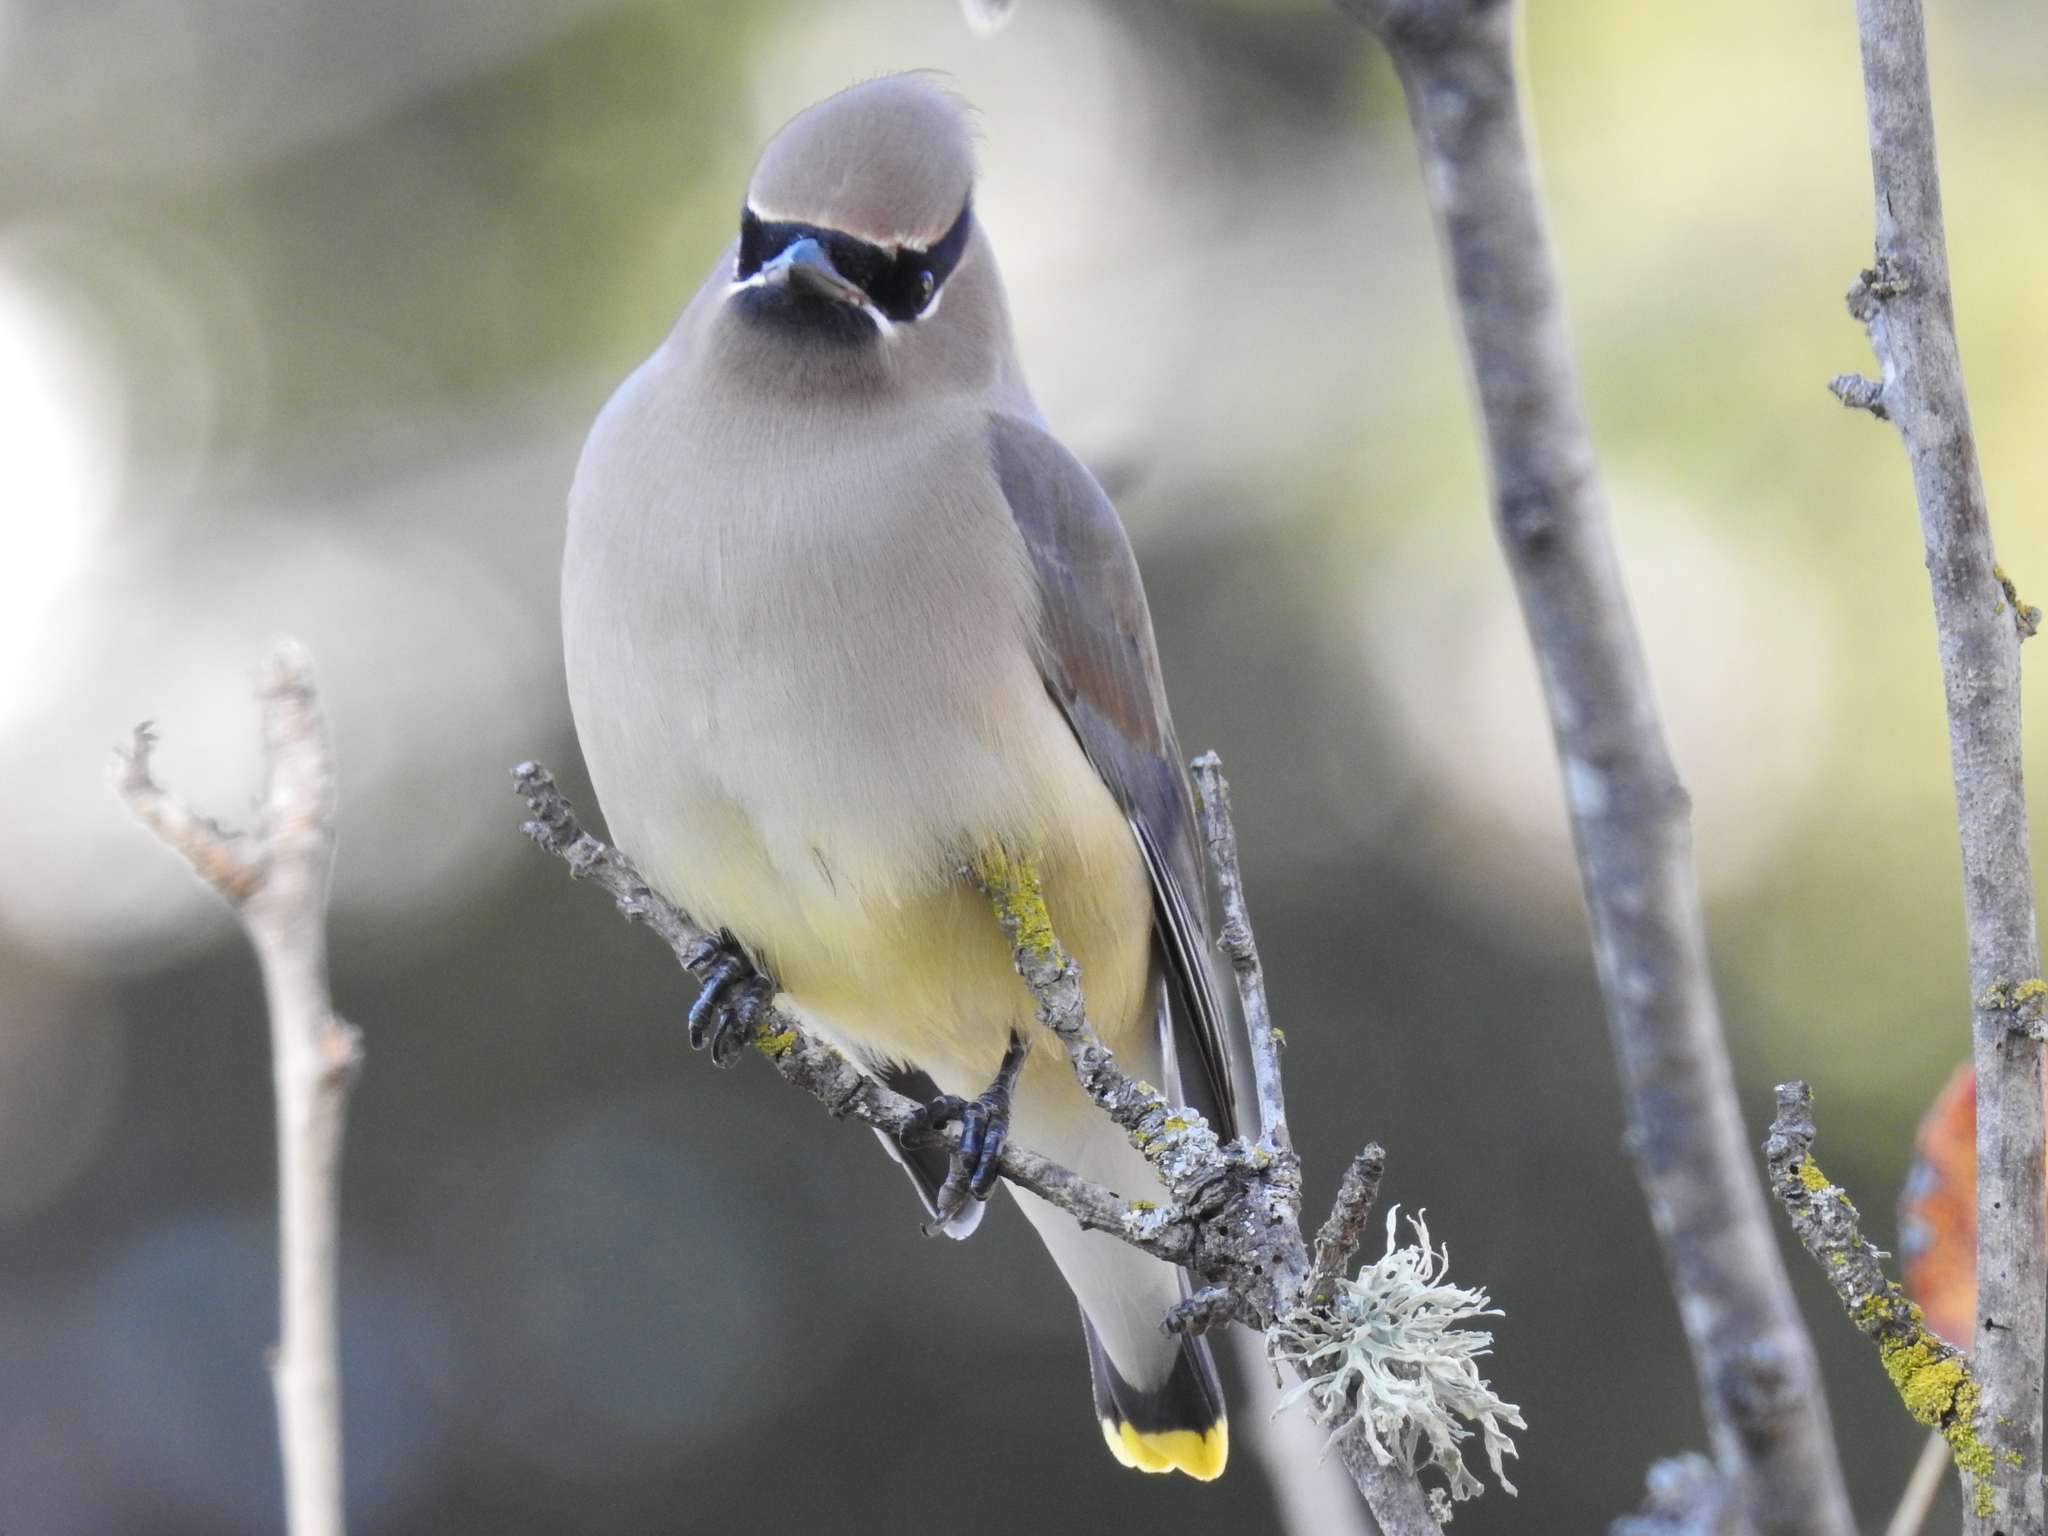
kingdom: Animalia
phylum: Chordata
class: Aves
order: Passeriformes
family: Bombycillidae
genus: Bombycilla
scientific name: Bombycilla cedrorum
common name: Cedar waxwing
